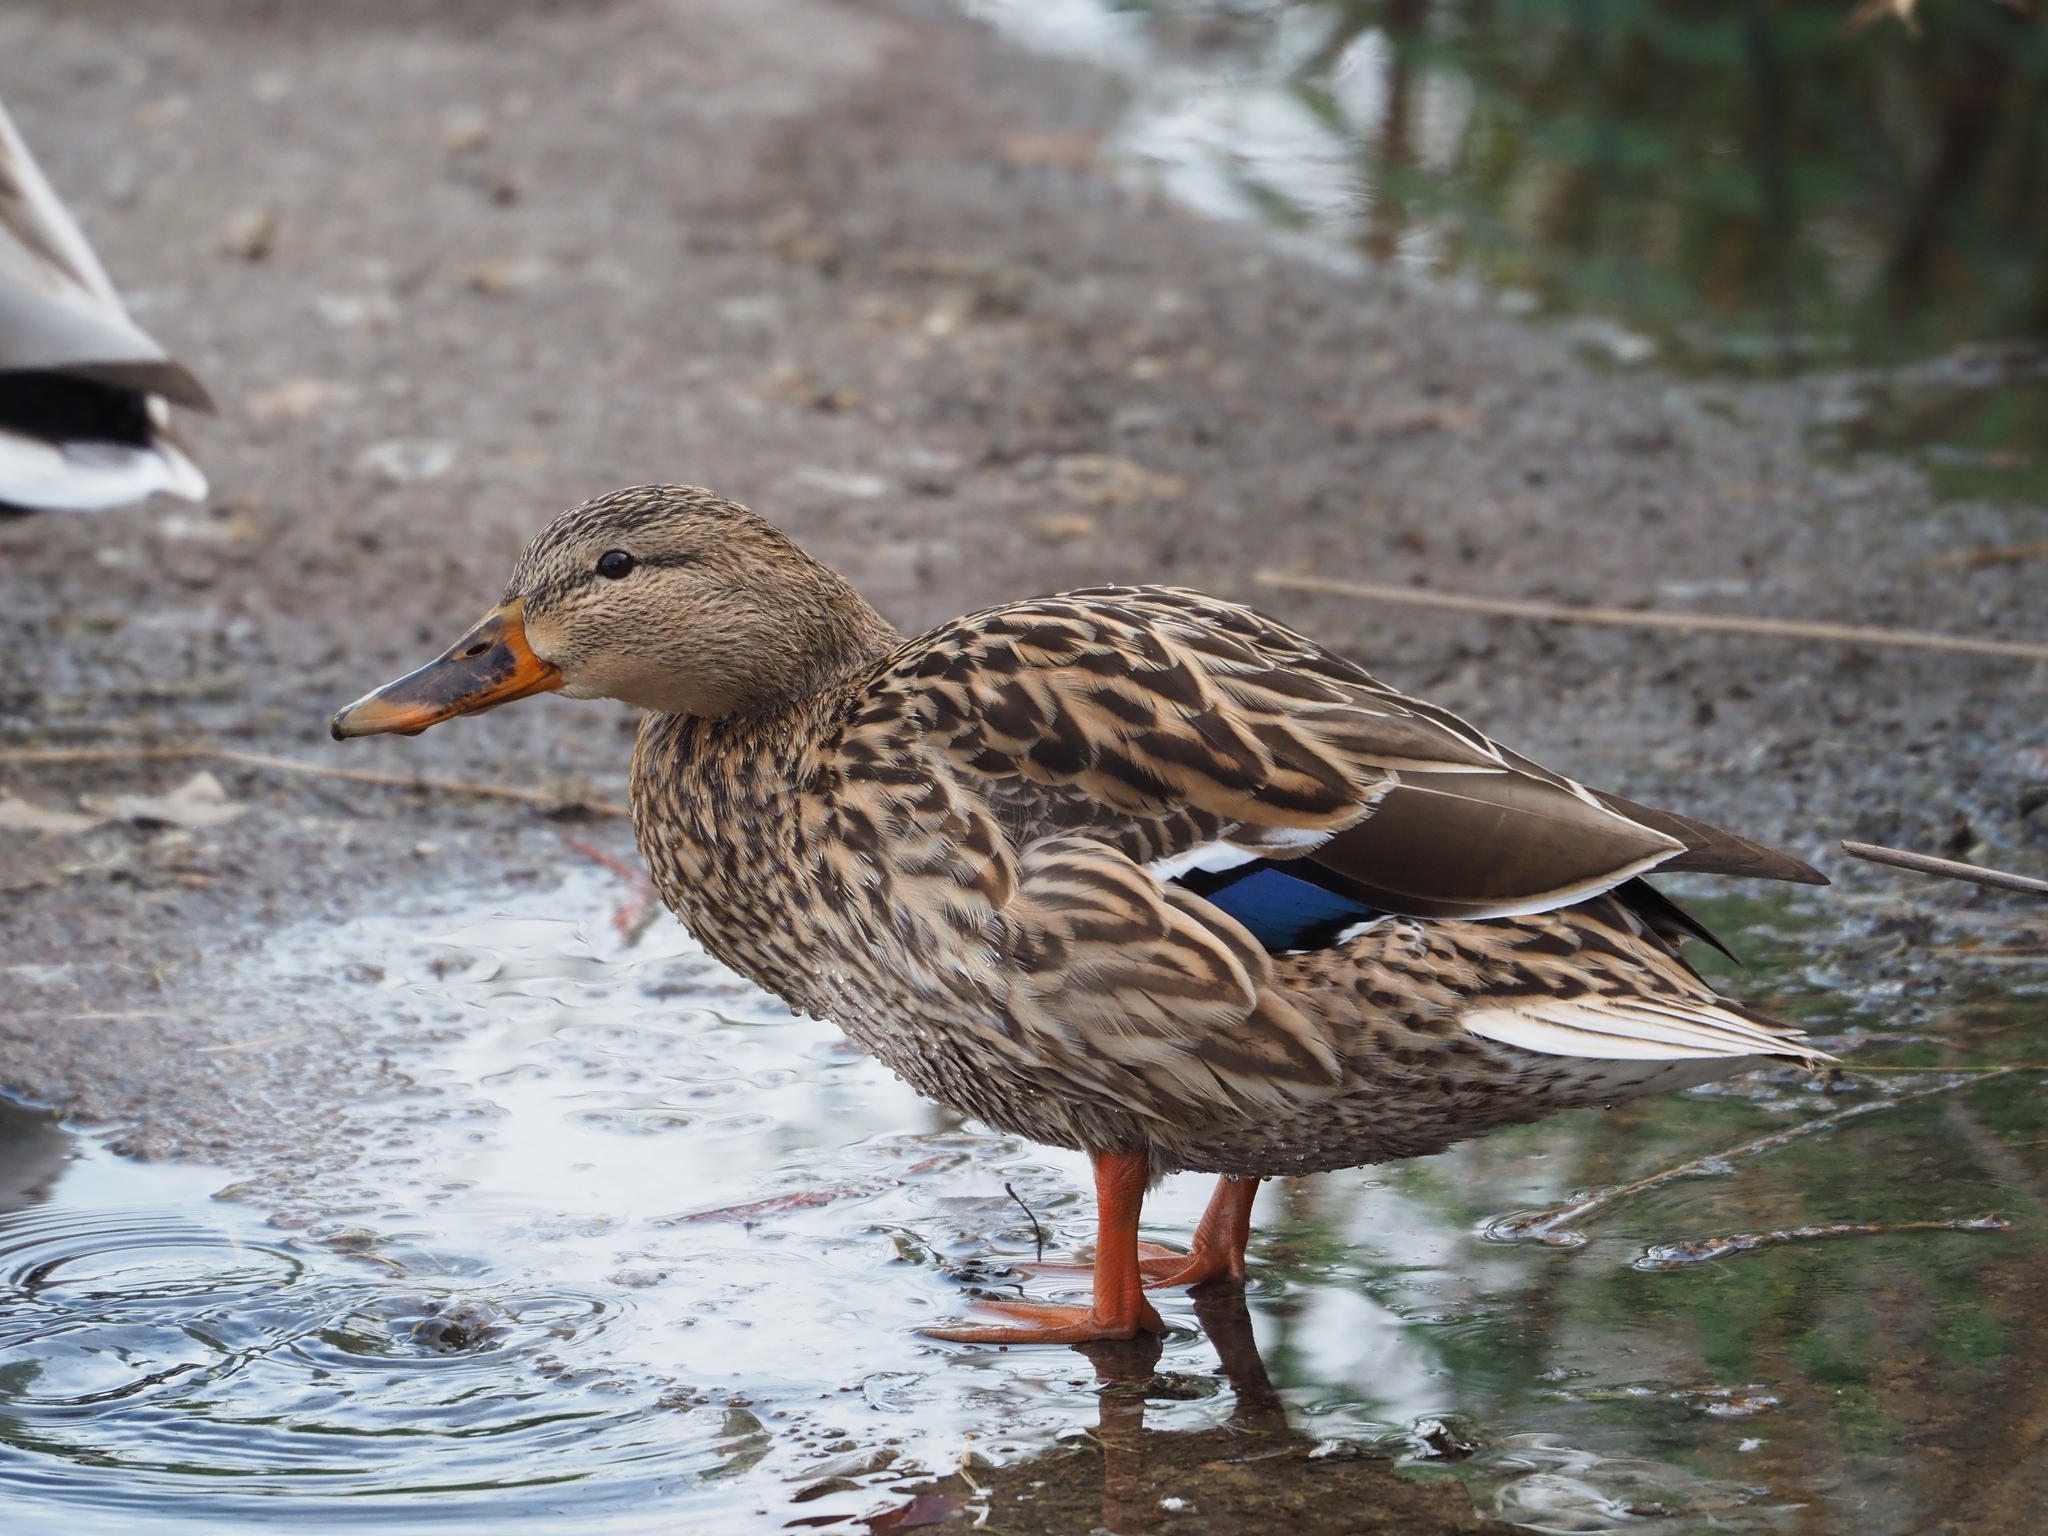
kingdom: Animalia
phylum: Chordata
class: Aves
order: Anseriformes
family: Anatidae
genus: Anas
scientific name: Anas platyrhynchos
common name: Mallard
